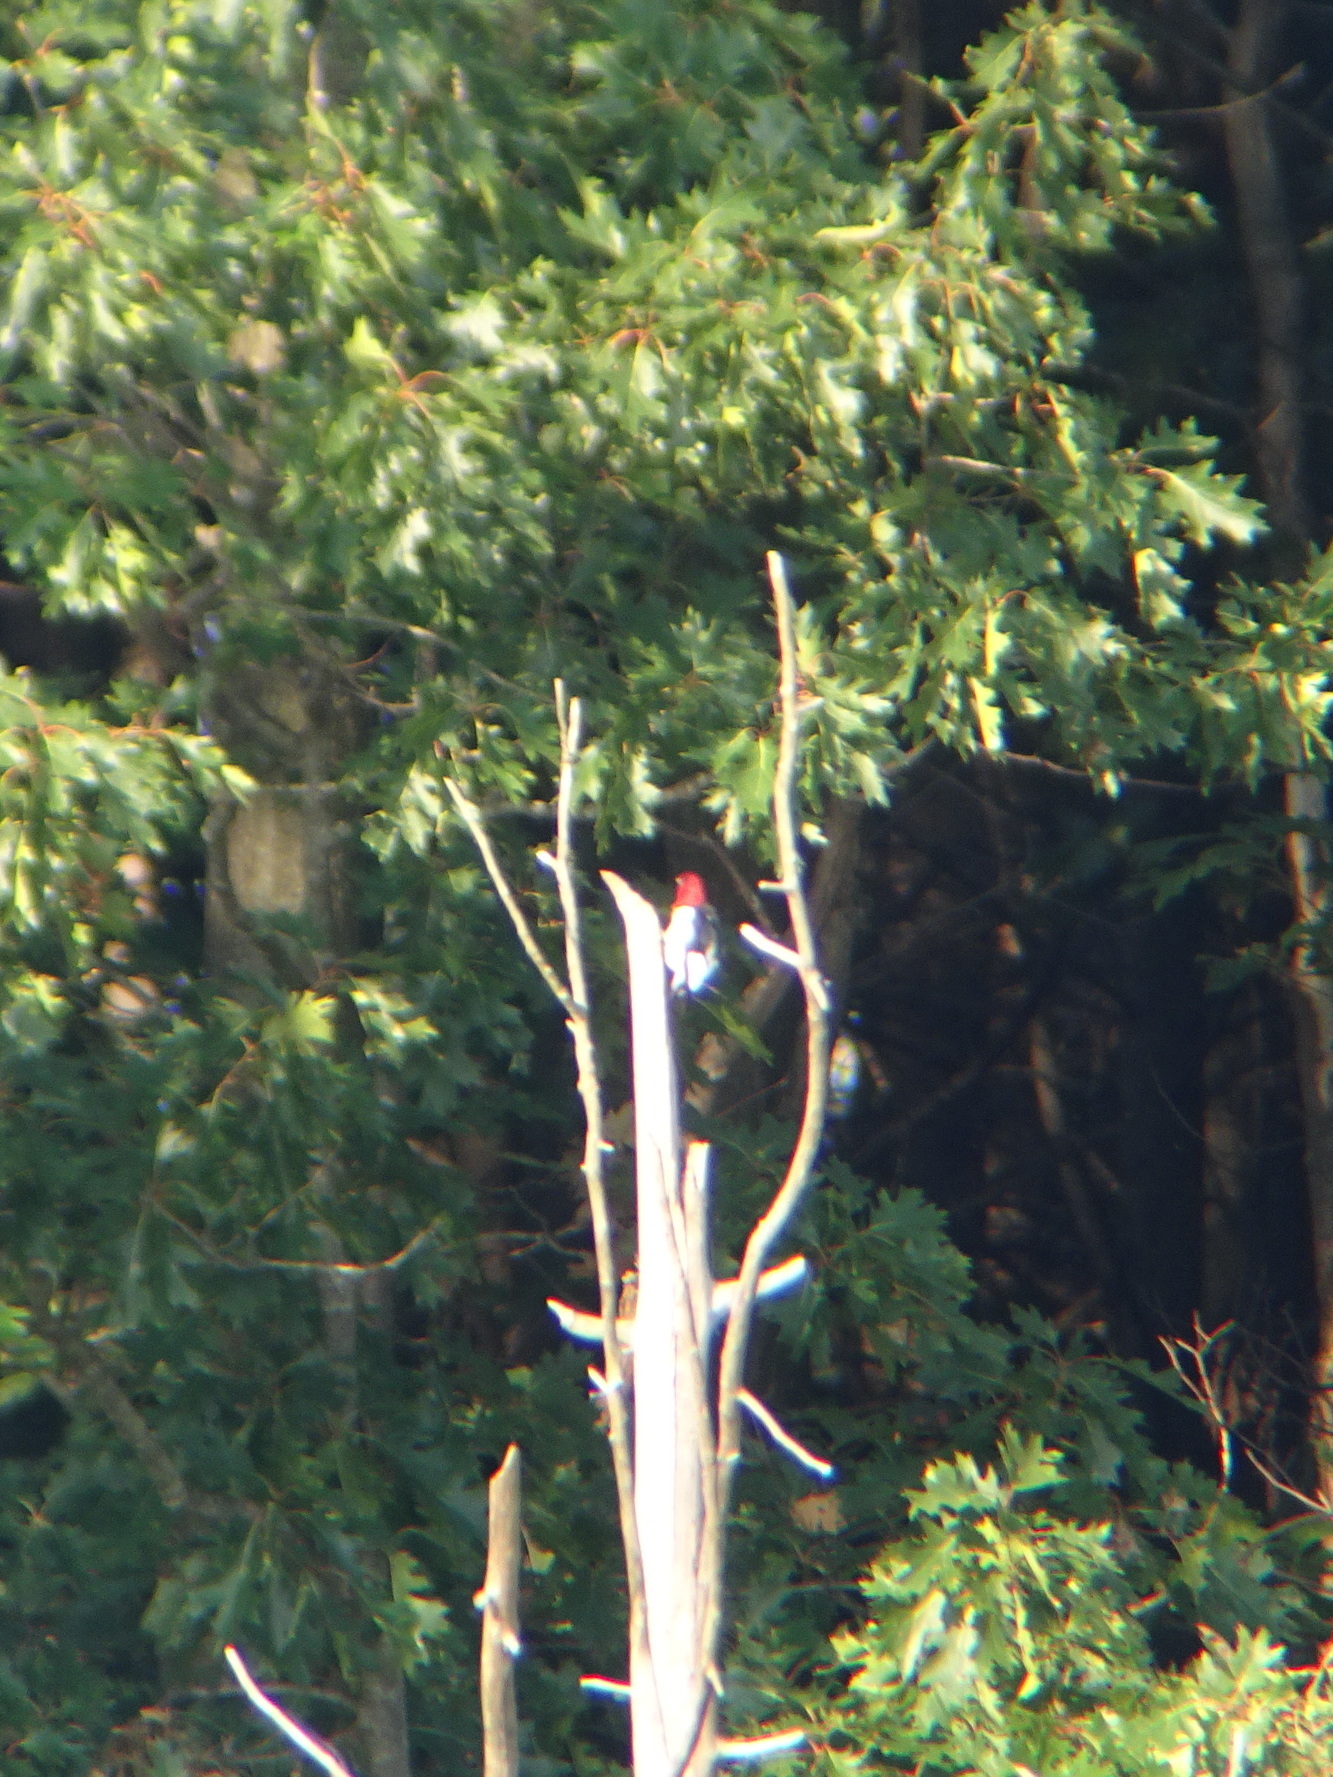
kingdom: Animalia
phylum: Chordata
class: Aves
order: Piciformes
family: Picidae
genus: Melanerpes
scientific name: Melanerpes erythrocephalus
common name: Red-headed woodpecker
